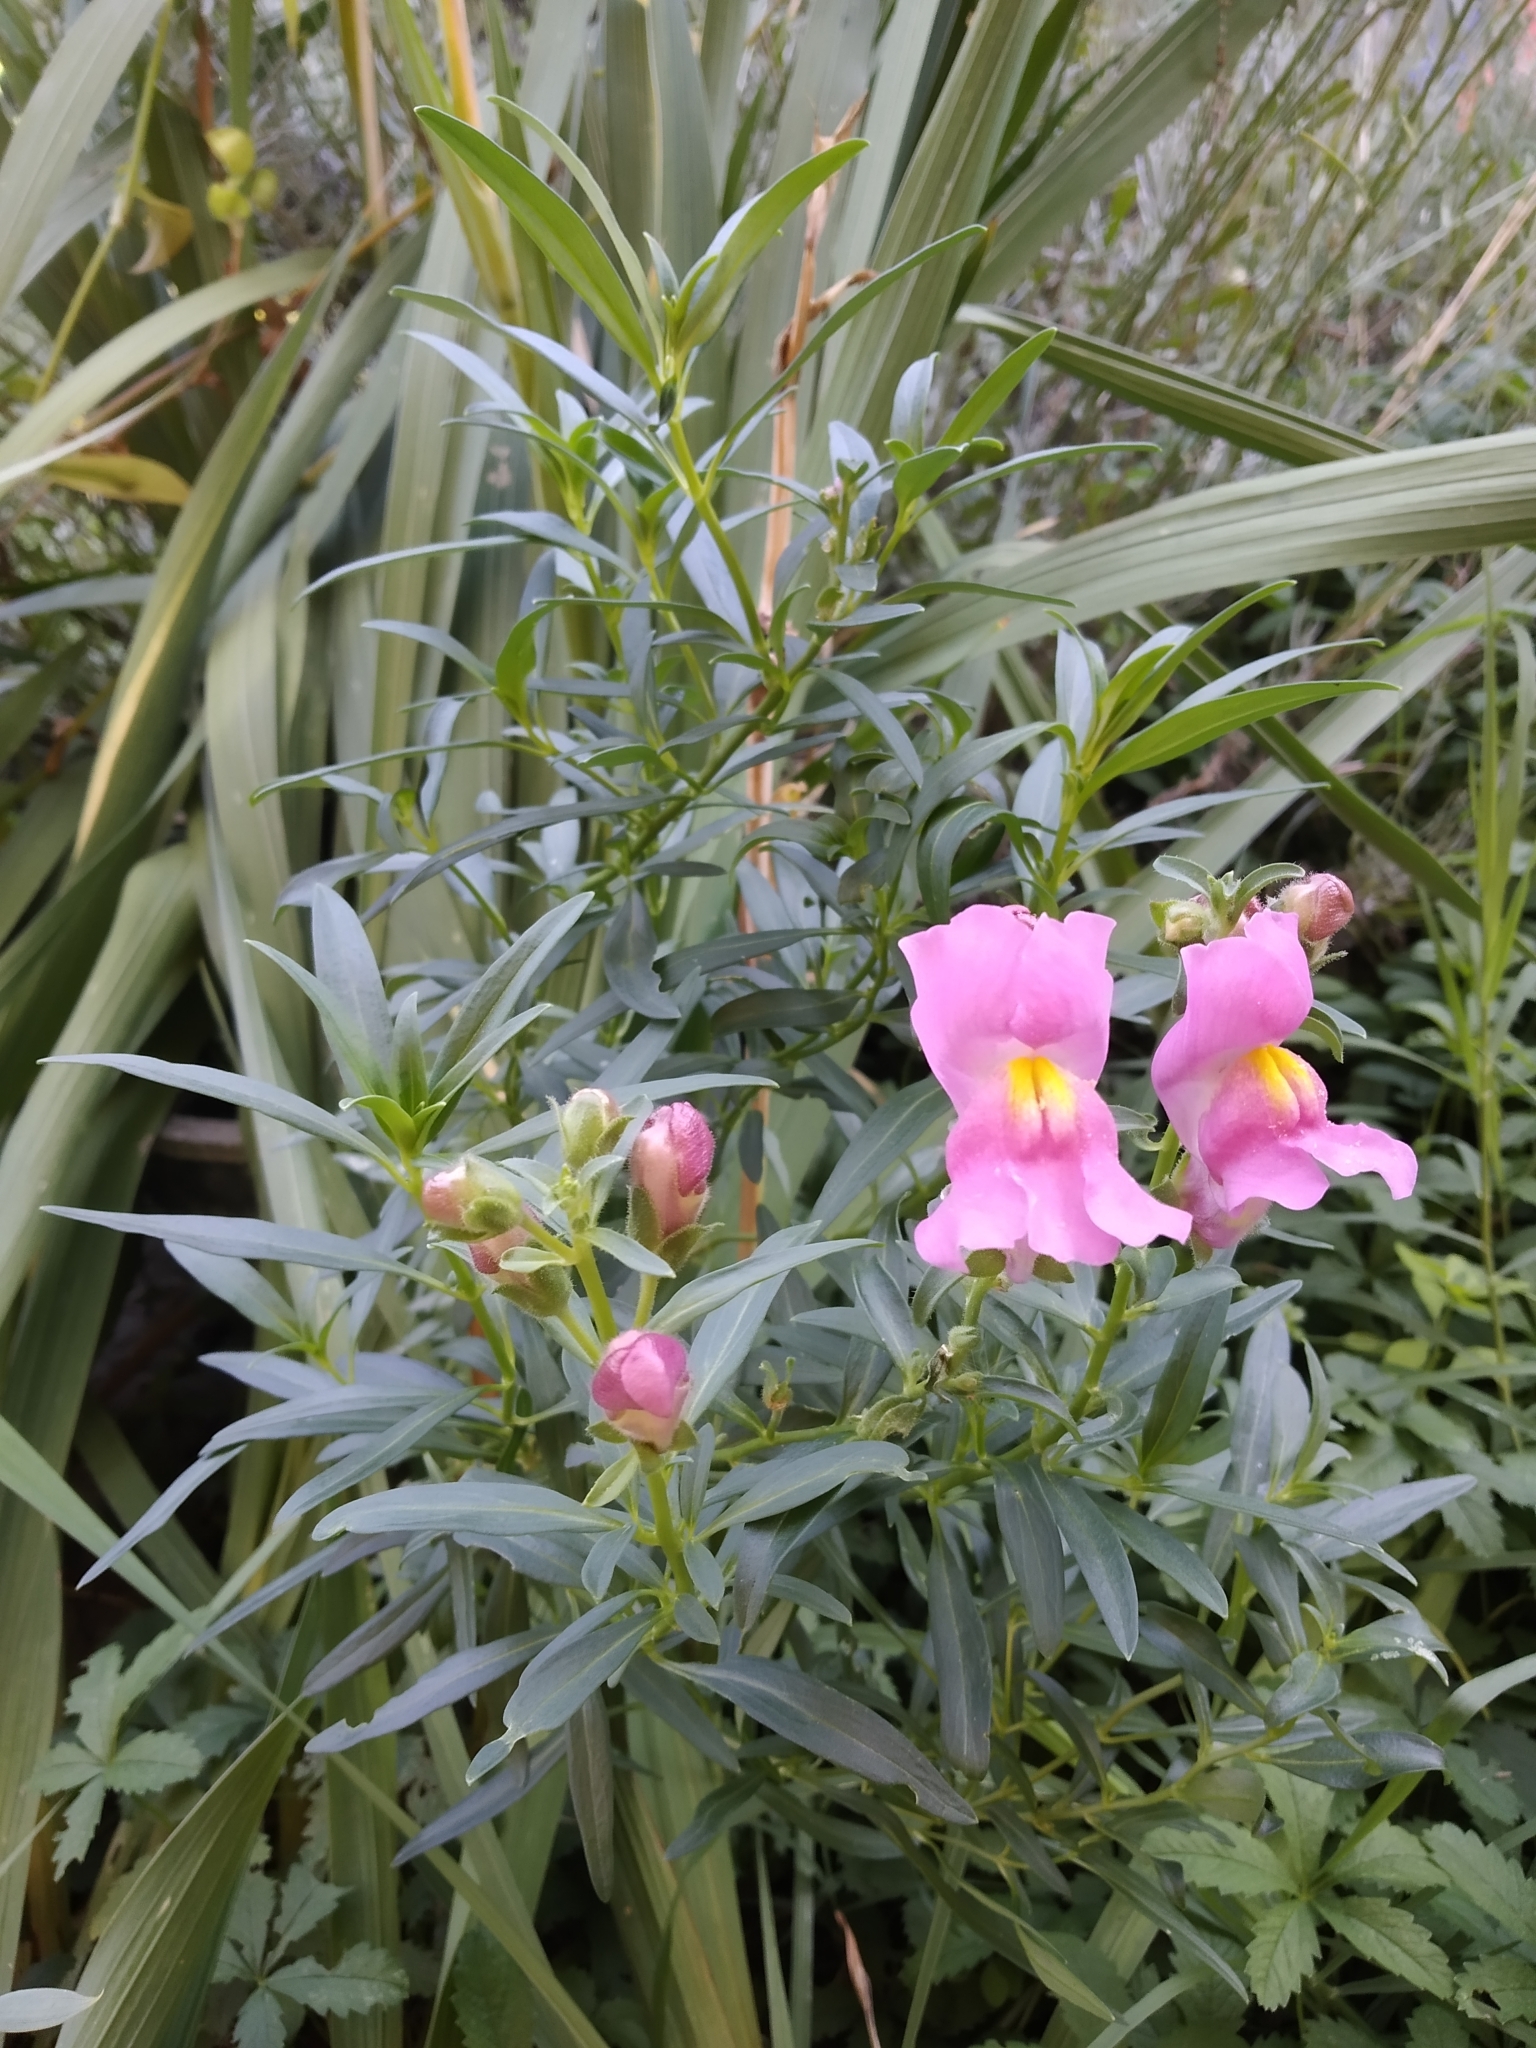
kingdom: Plantae
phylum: Tracheophyta
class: Magnoliopsida
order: Lamiales
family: Plantaginaceae
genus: Antirrhinum
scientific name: Antirrhinum majus
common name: Snapdragon
